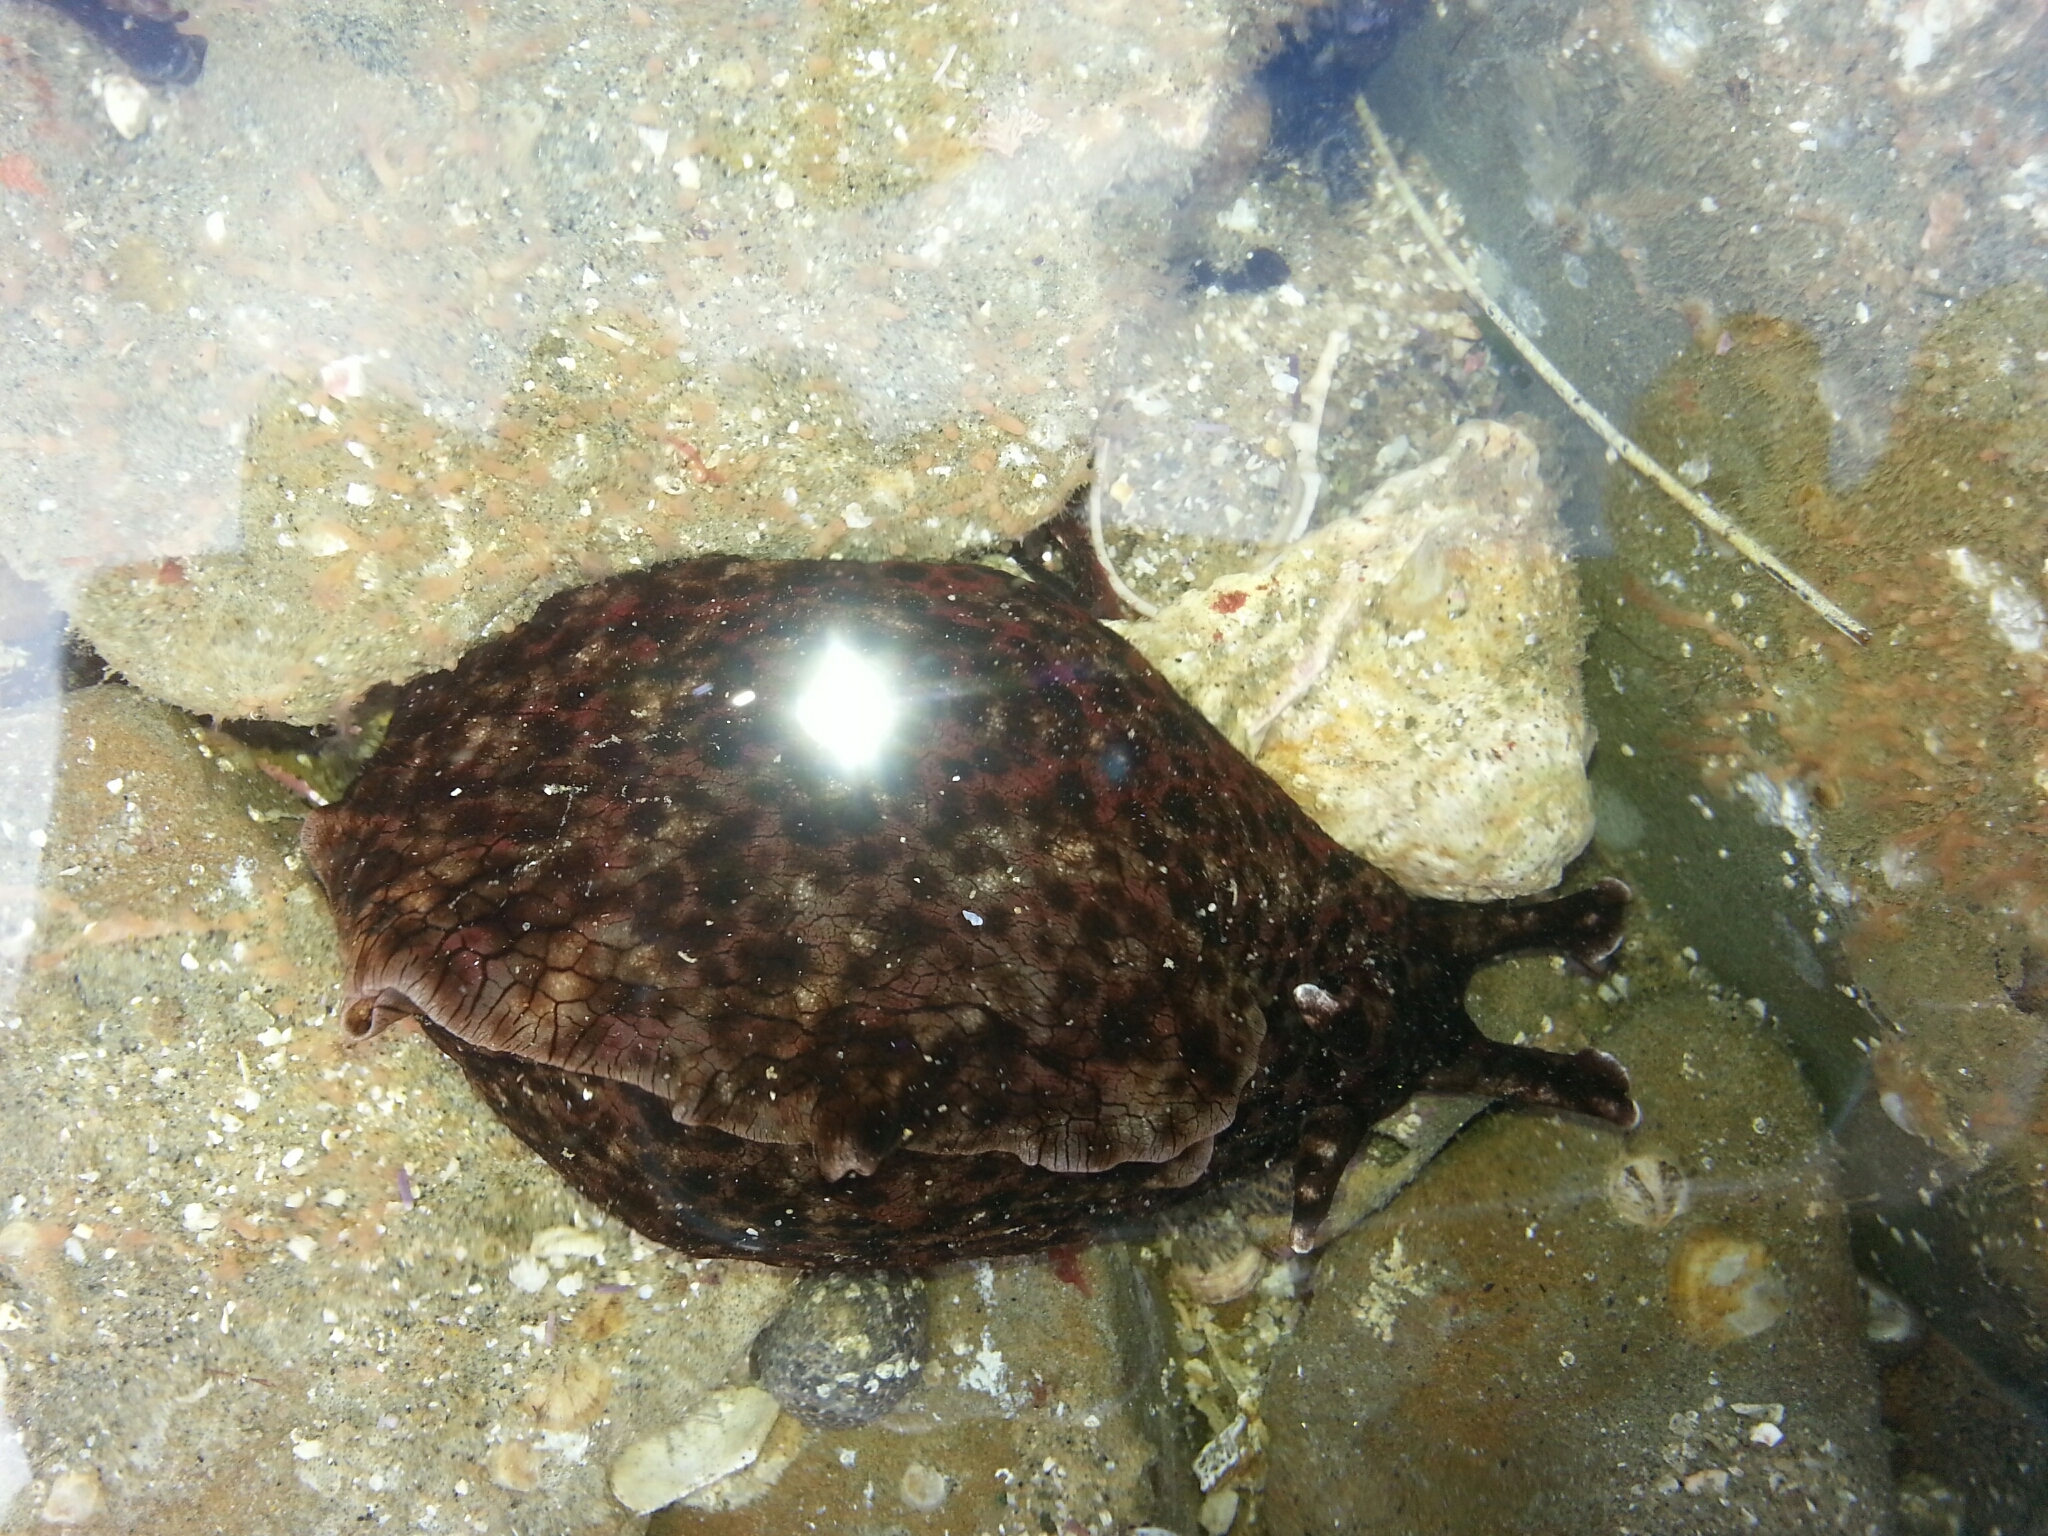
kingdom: Animalia
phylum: Mollusca
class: Gastropoda
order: Aplysiida
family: Aplysiidae
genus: Aplysia
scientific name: Aplysia californica
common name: California seahare
